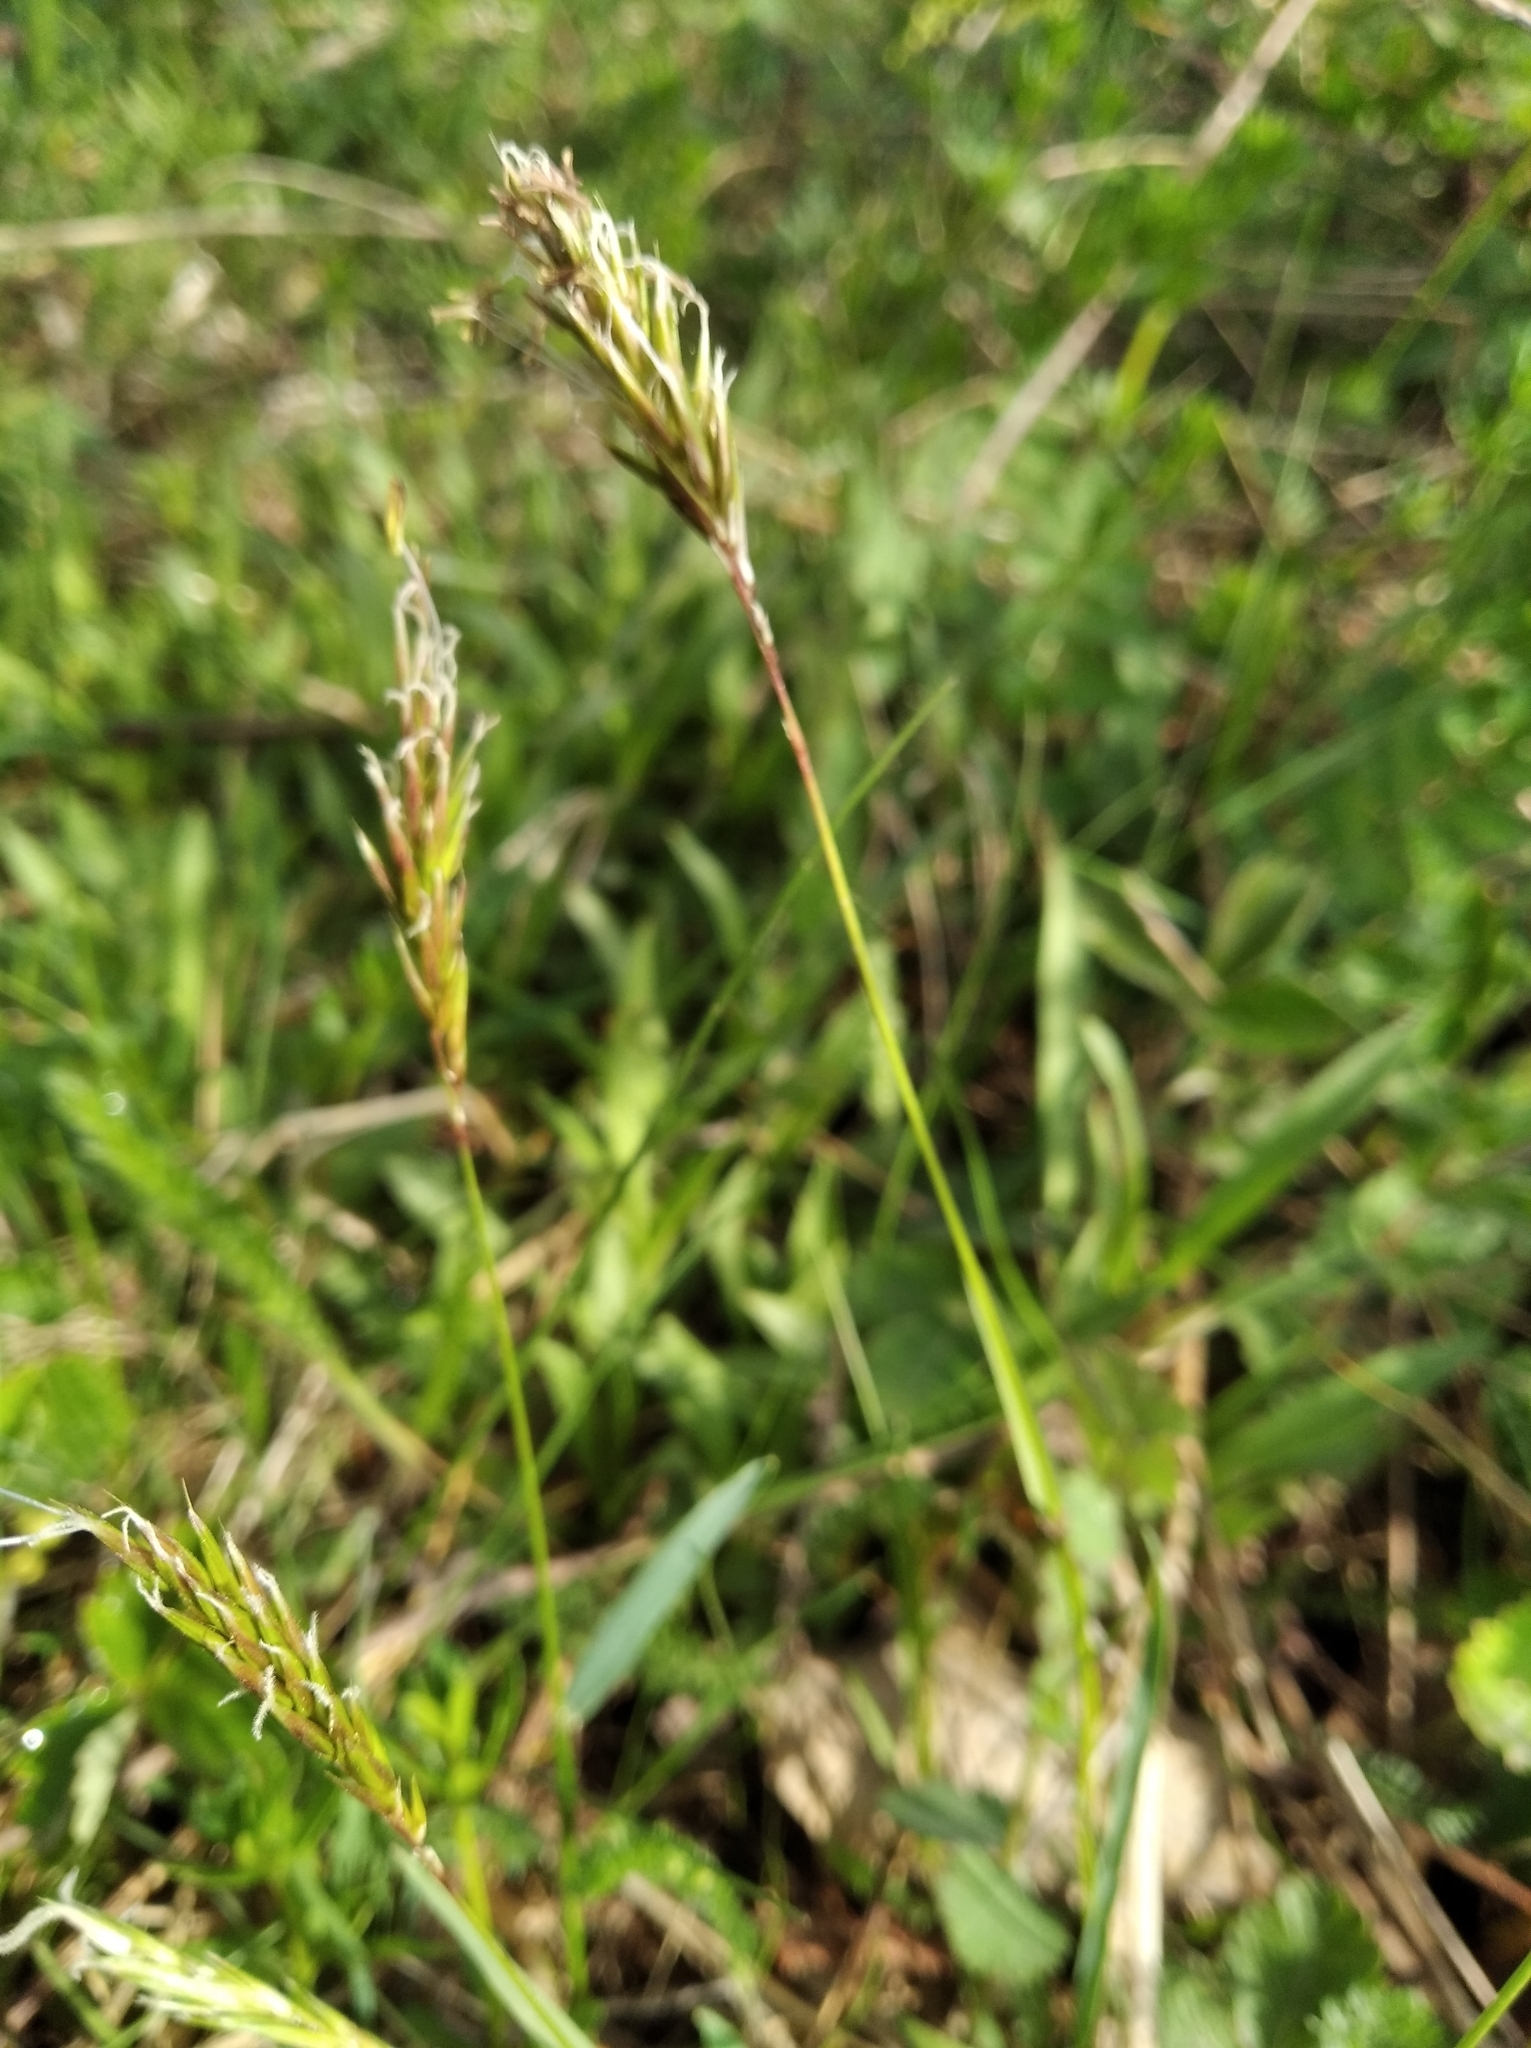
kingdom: Plantae
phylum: Tracheophyta
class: Liliopsida
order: Poales
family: Poaceae
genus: Anthoxanthum
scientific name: Anthoxanthum odoratum
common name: Sweet vernalgrass
